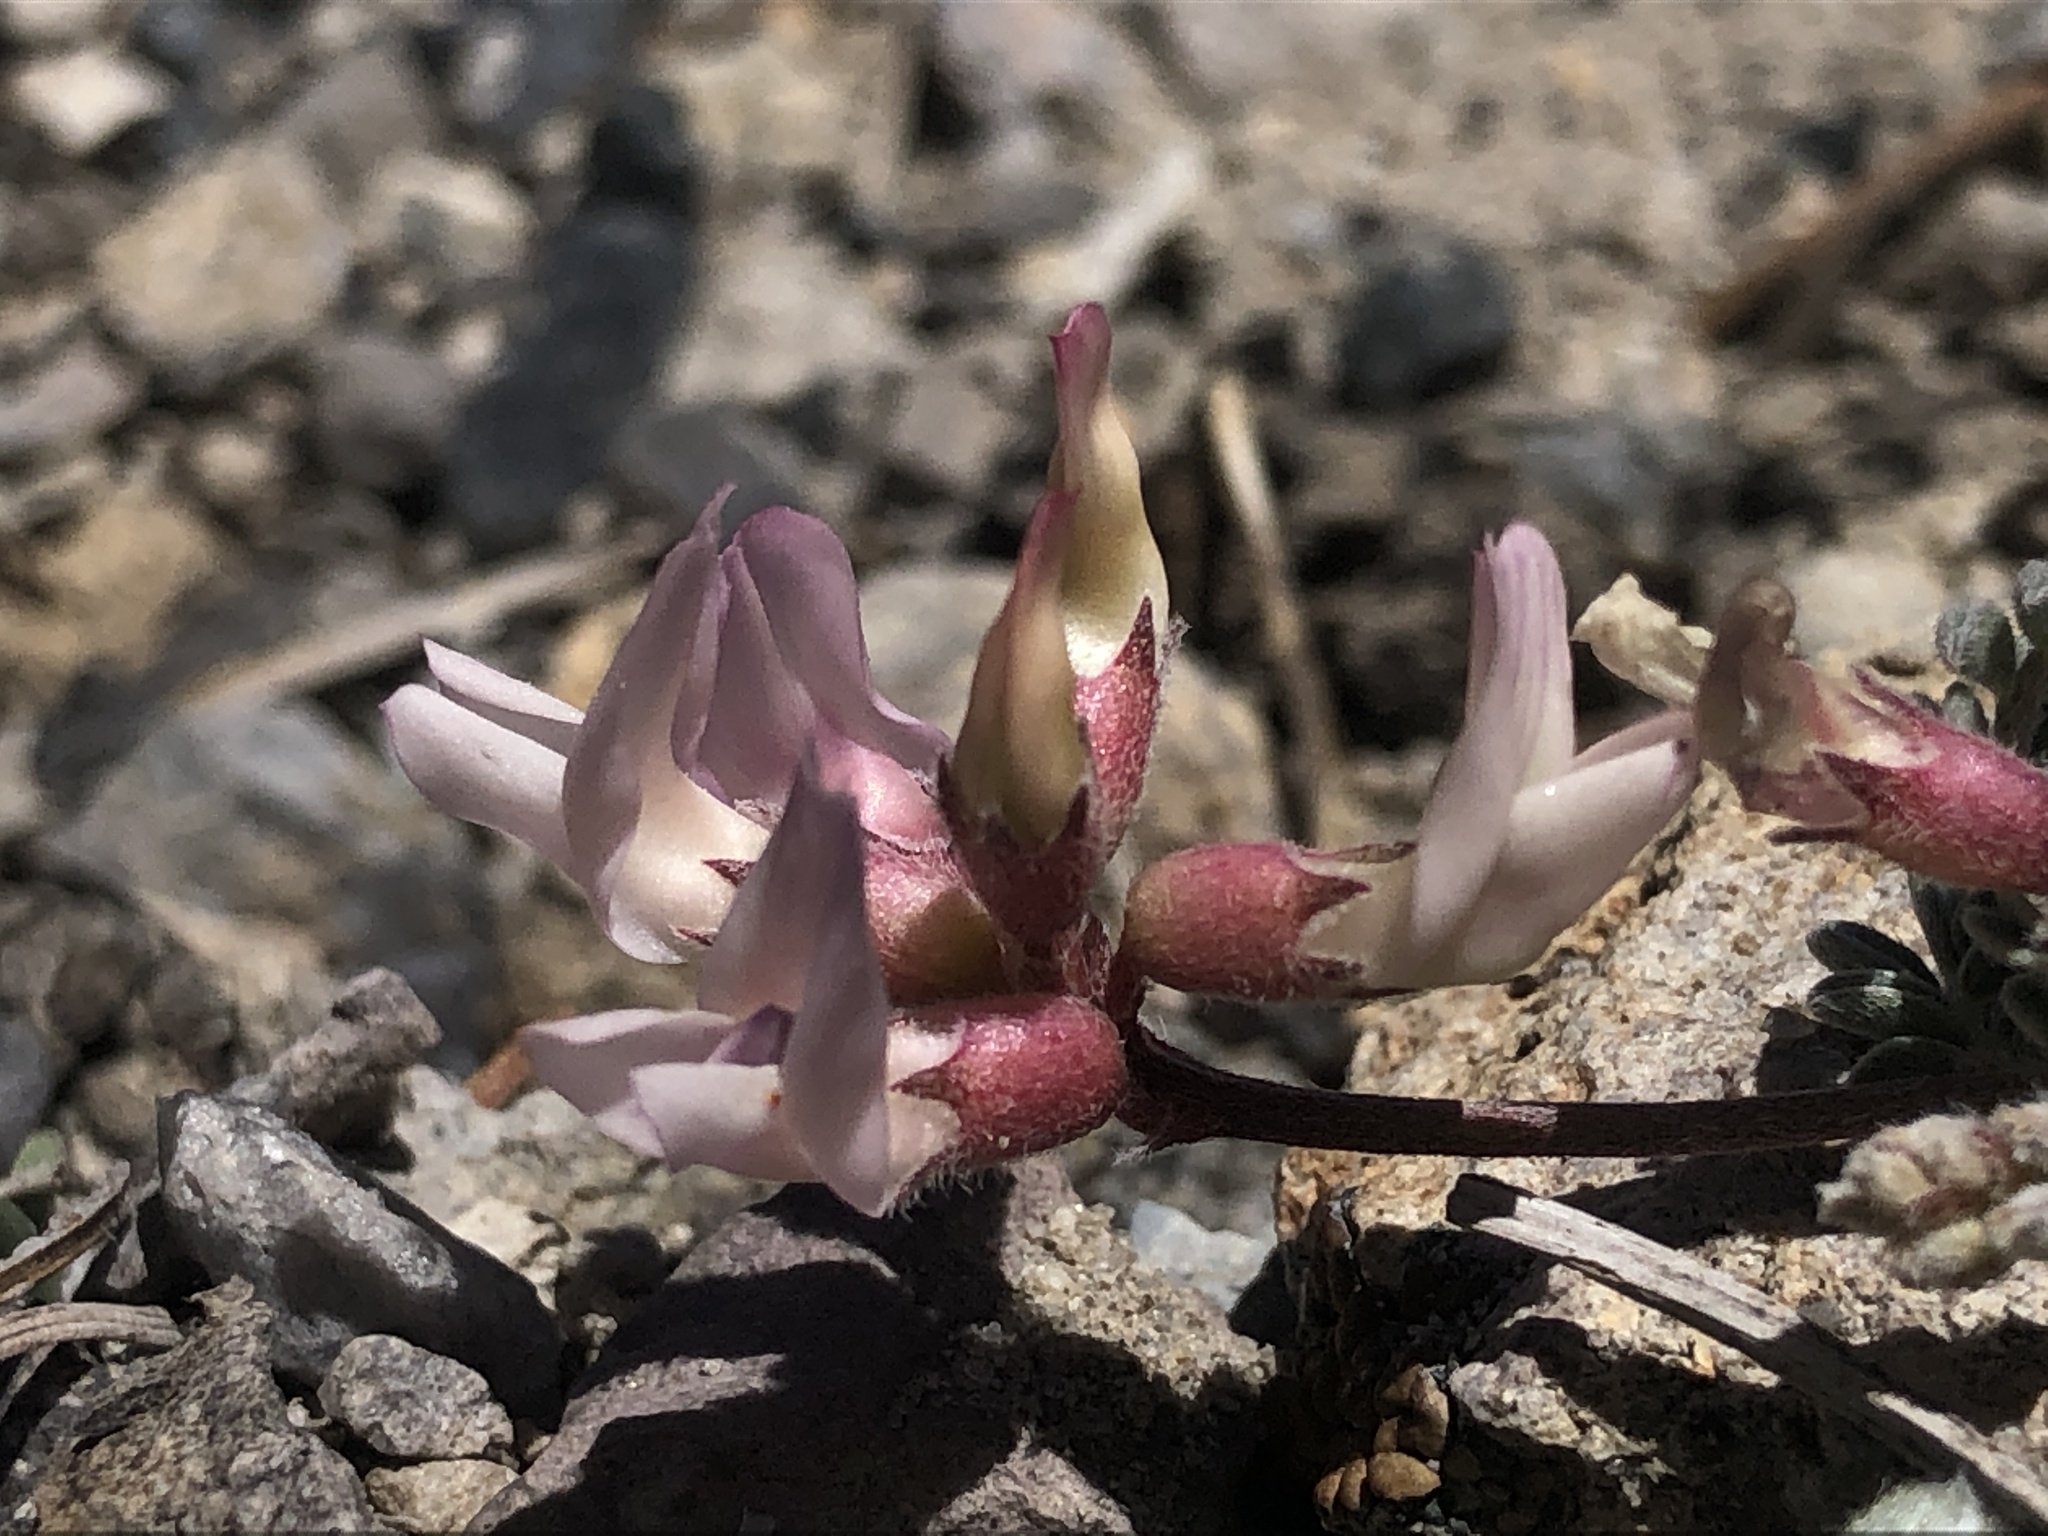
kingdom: Plantae
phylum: Tracheophyta
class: Magnoliopsida
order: Fabales
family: Fabaceae
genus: Astragalus
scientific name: Astragalus monoensis
